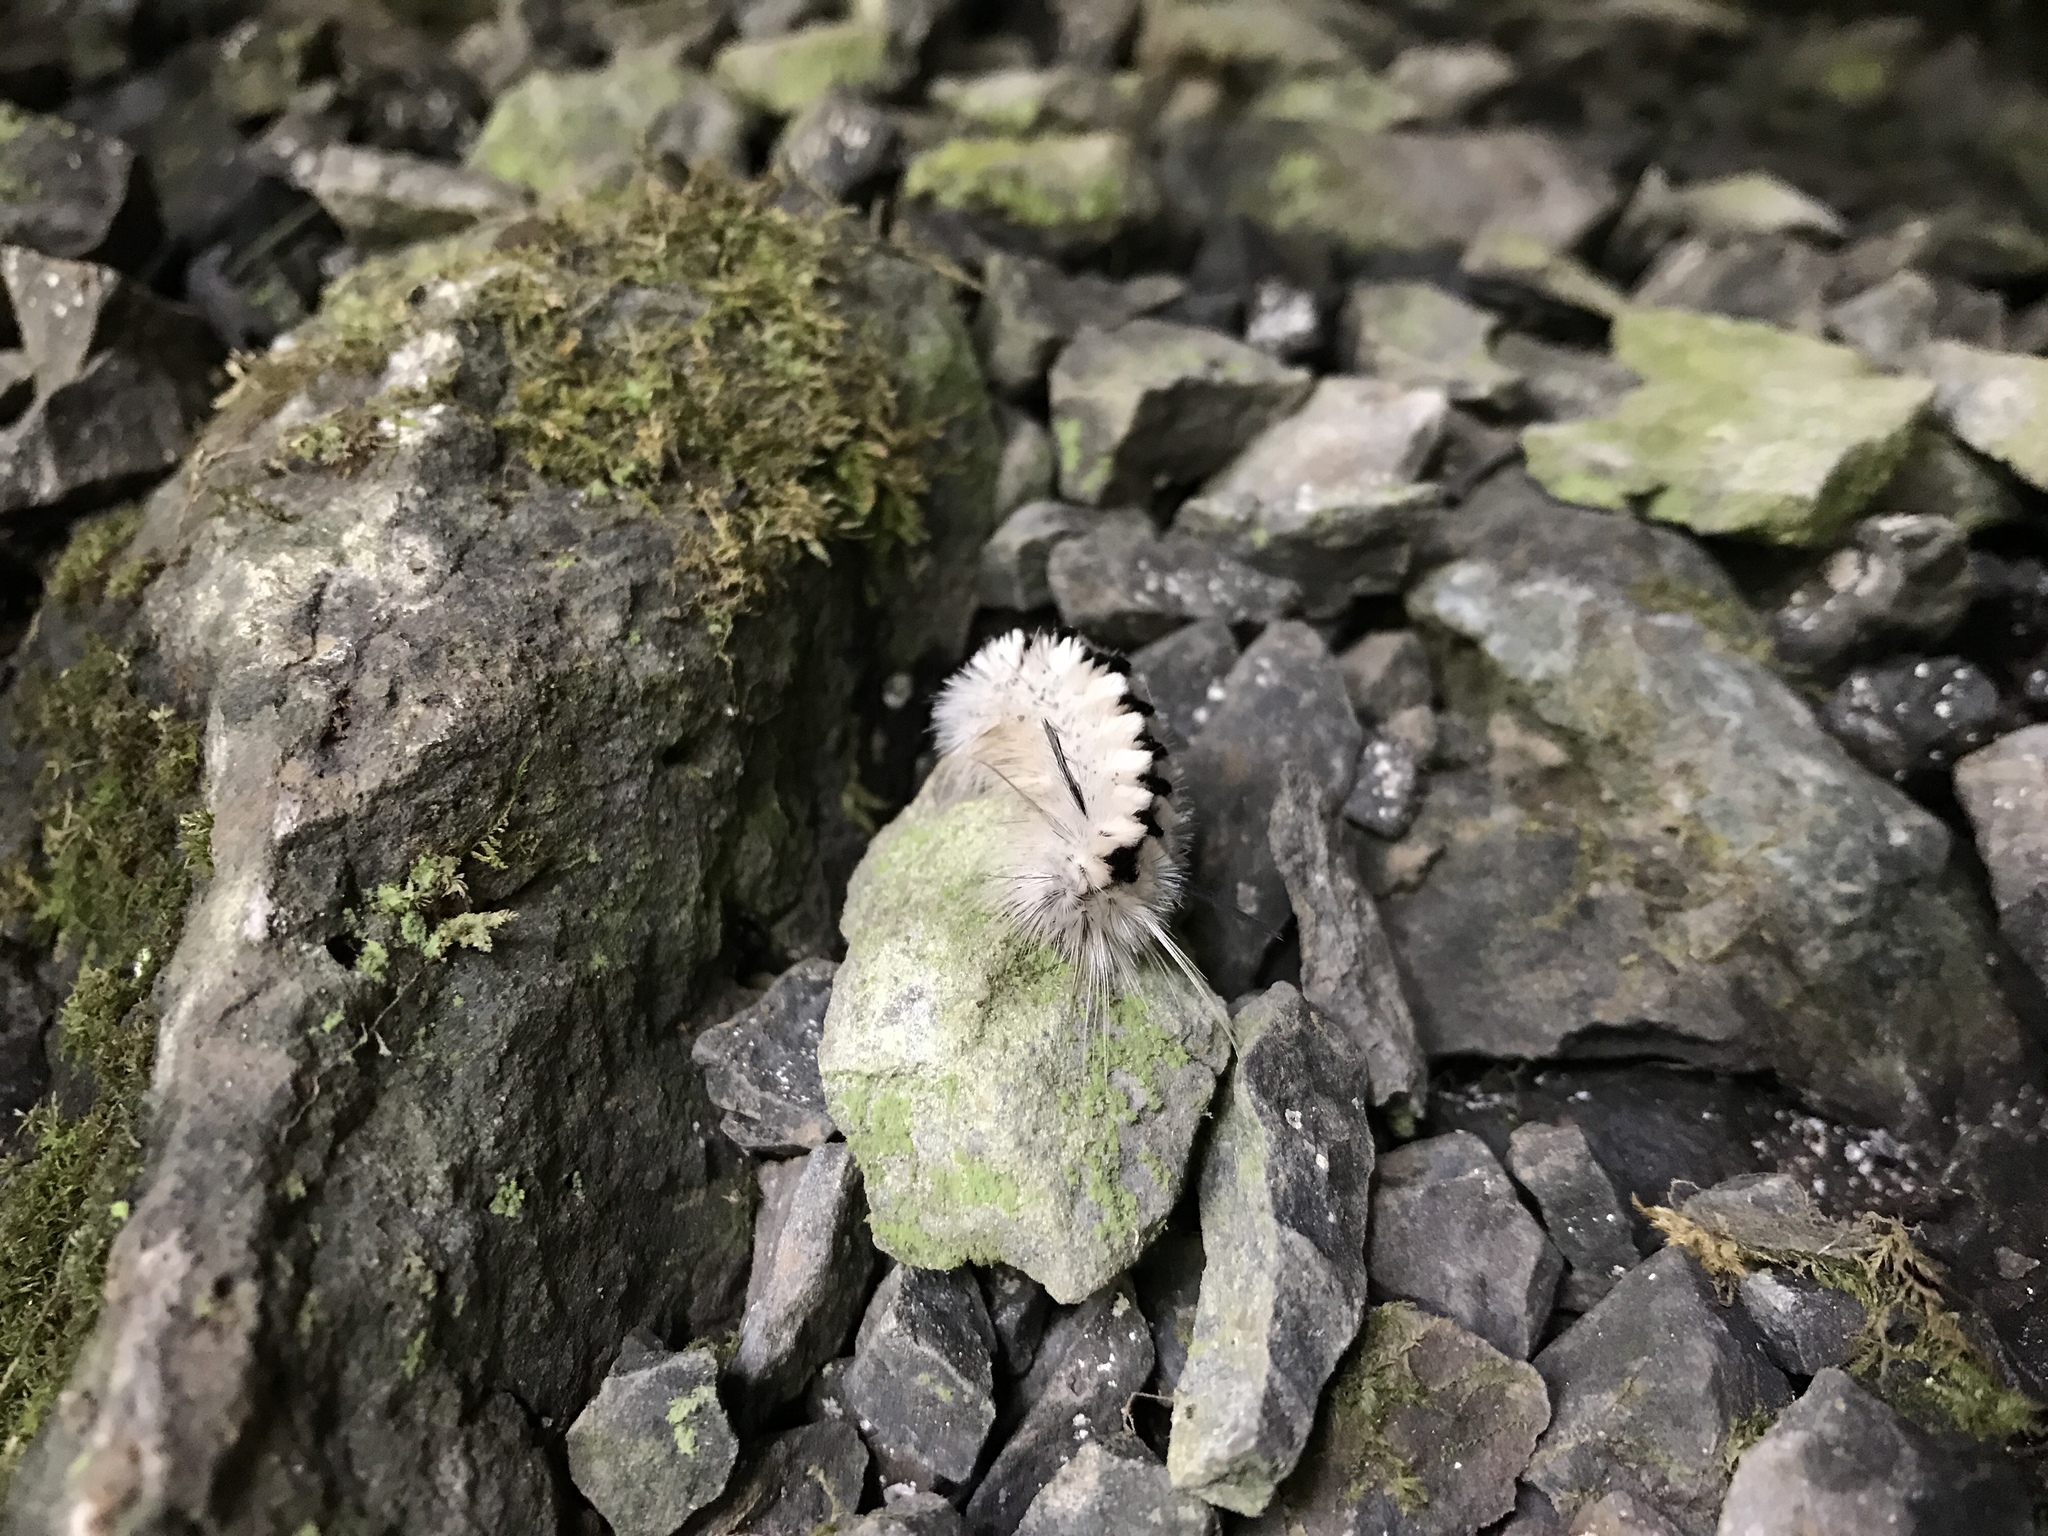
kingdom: Animalia
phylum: Arthropoda
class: Insecta
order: Lepidoptera
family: Erebidae
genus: Lophocampa
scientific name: Lophocampa caryae
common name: Hickory tussock moth
